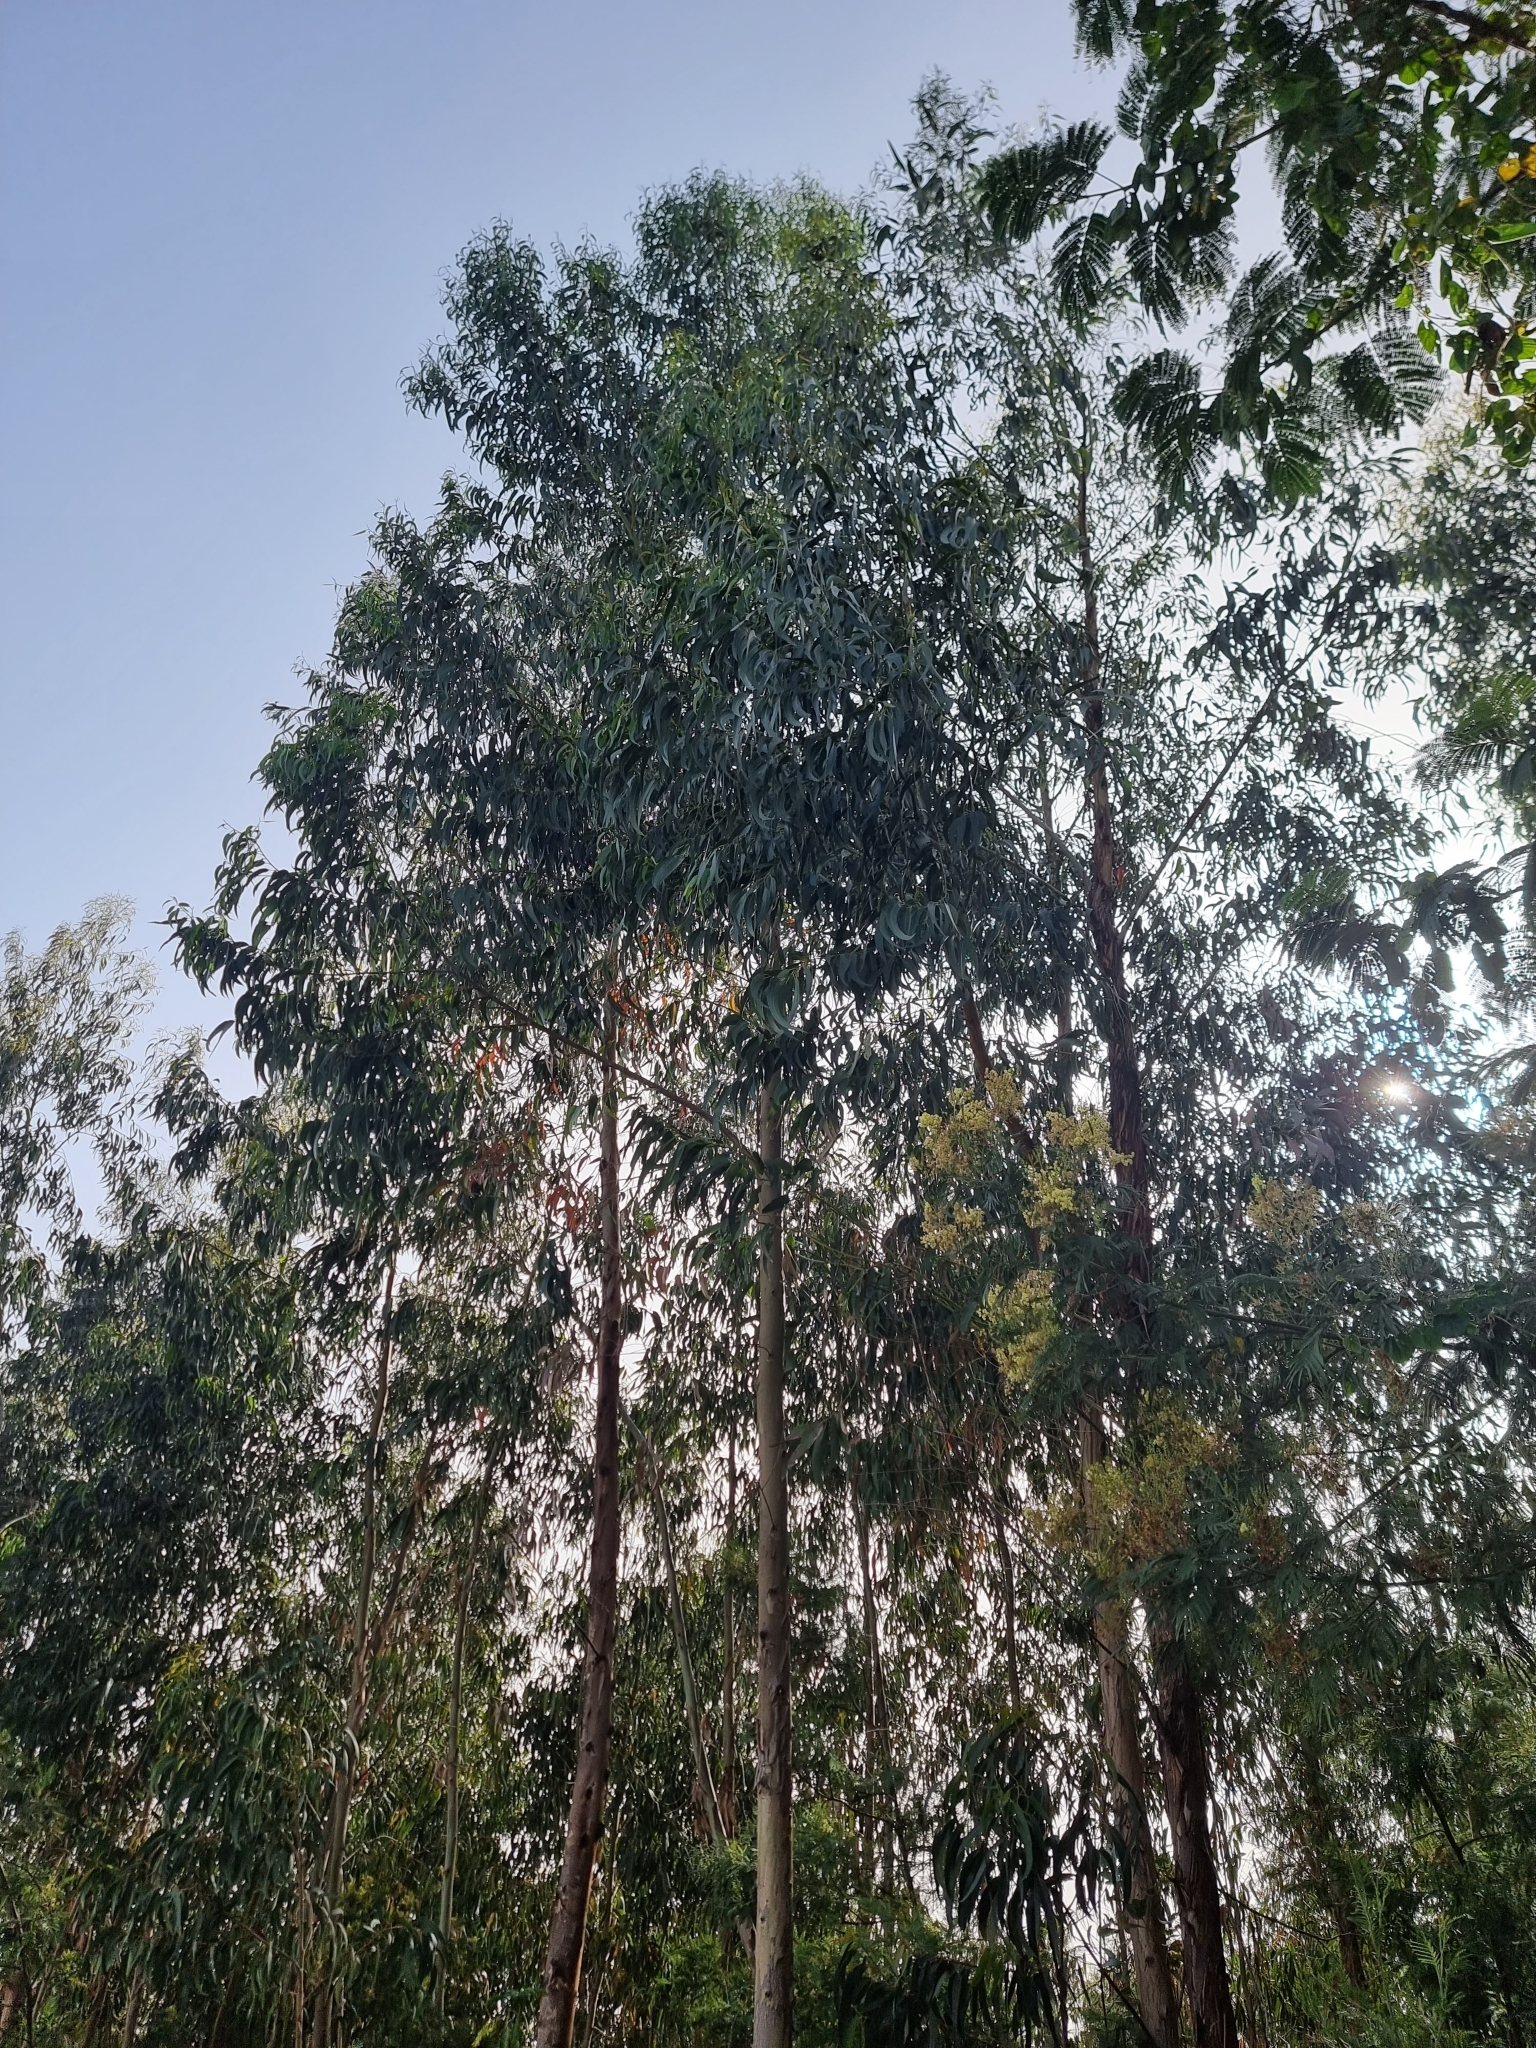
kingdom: Plantae
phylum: Tracheophyta
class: Magnoliopsida
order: Myrtales
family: Myrtaceae
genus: Eucalyptus
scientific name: Eucalyptus globulus
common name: Southern blue-gum
